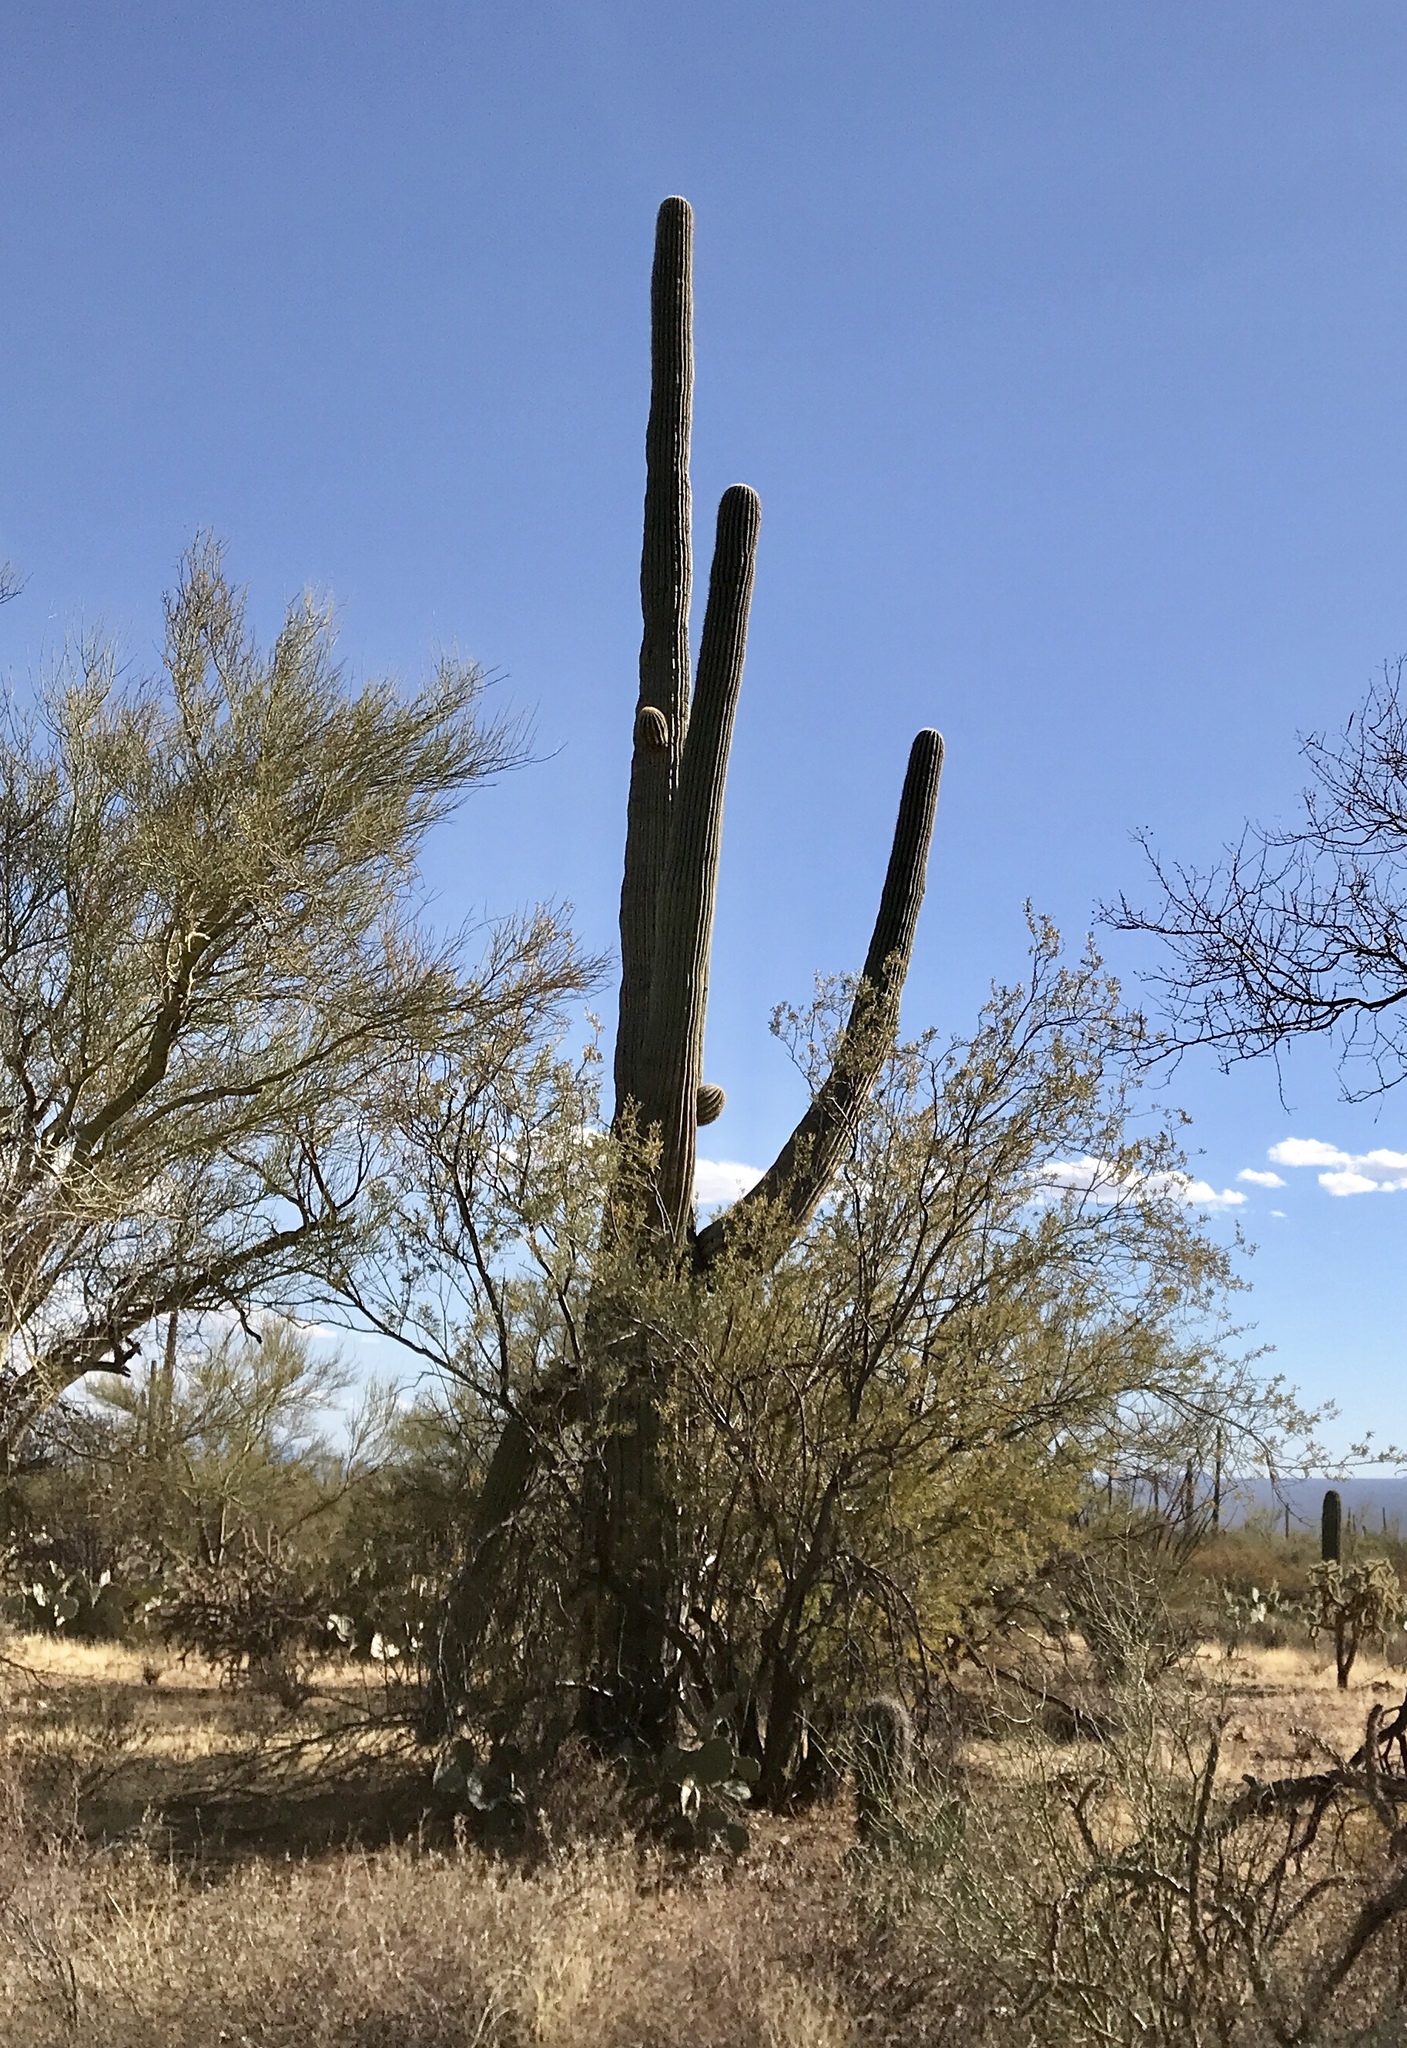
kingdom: Plantae
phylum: Tracheophyta
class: Magnoliopsida
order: Caryophyllales
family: Cactaceae
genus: Carnegiea
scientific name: Carnegiea gigantea
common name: Saguaro
